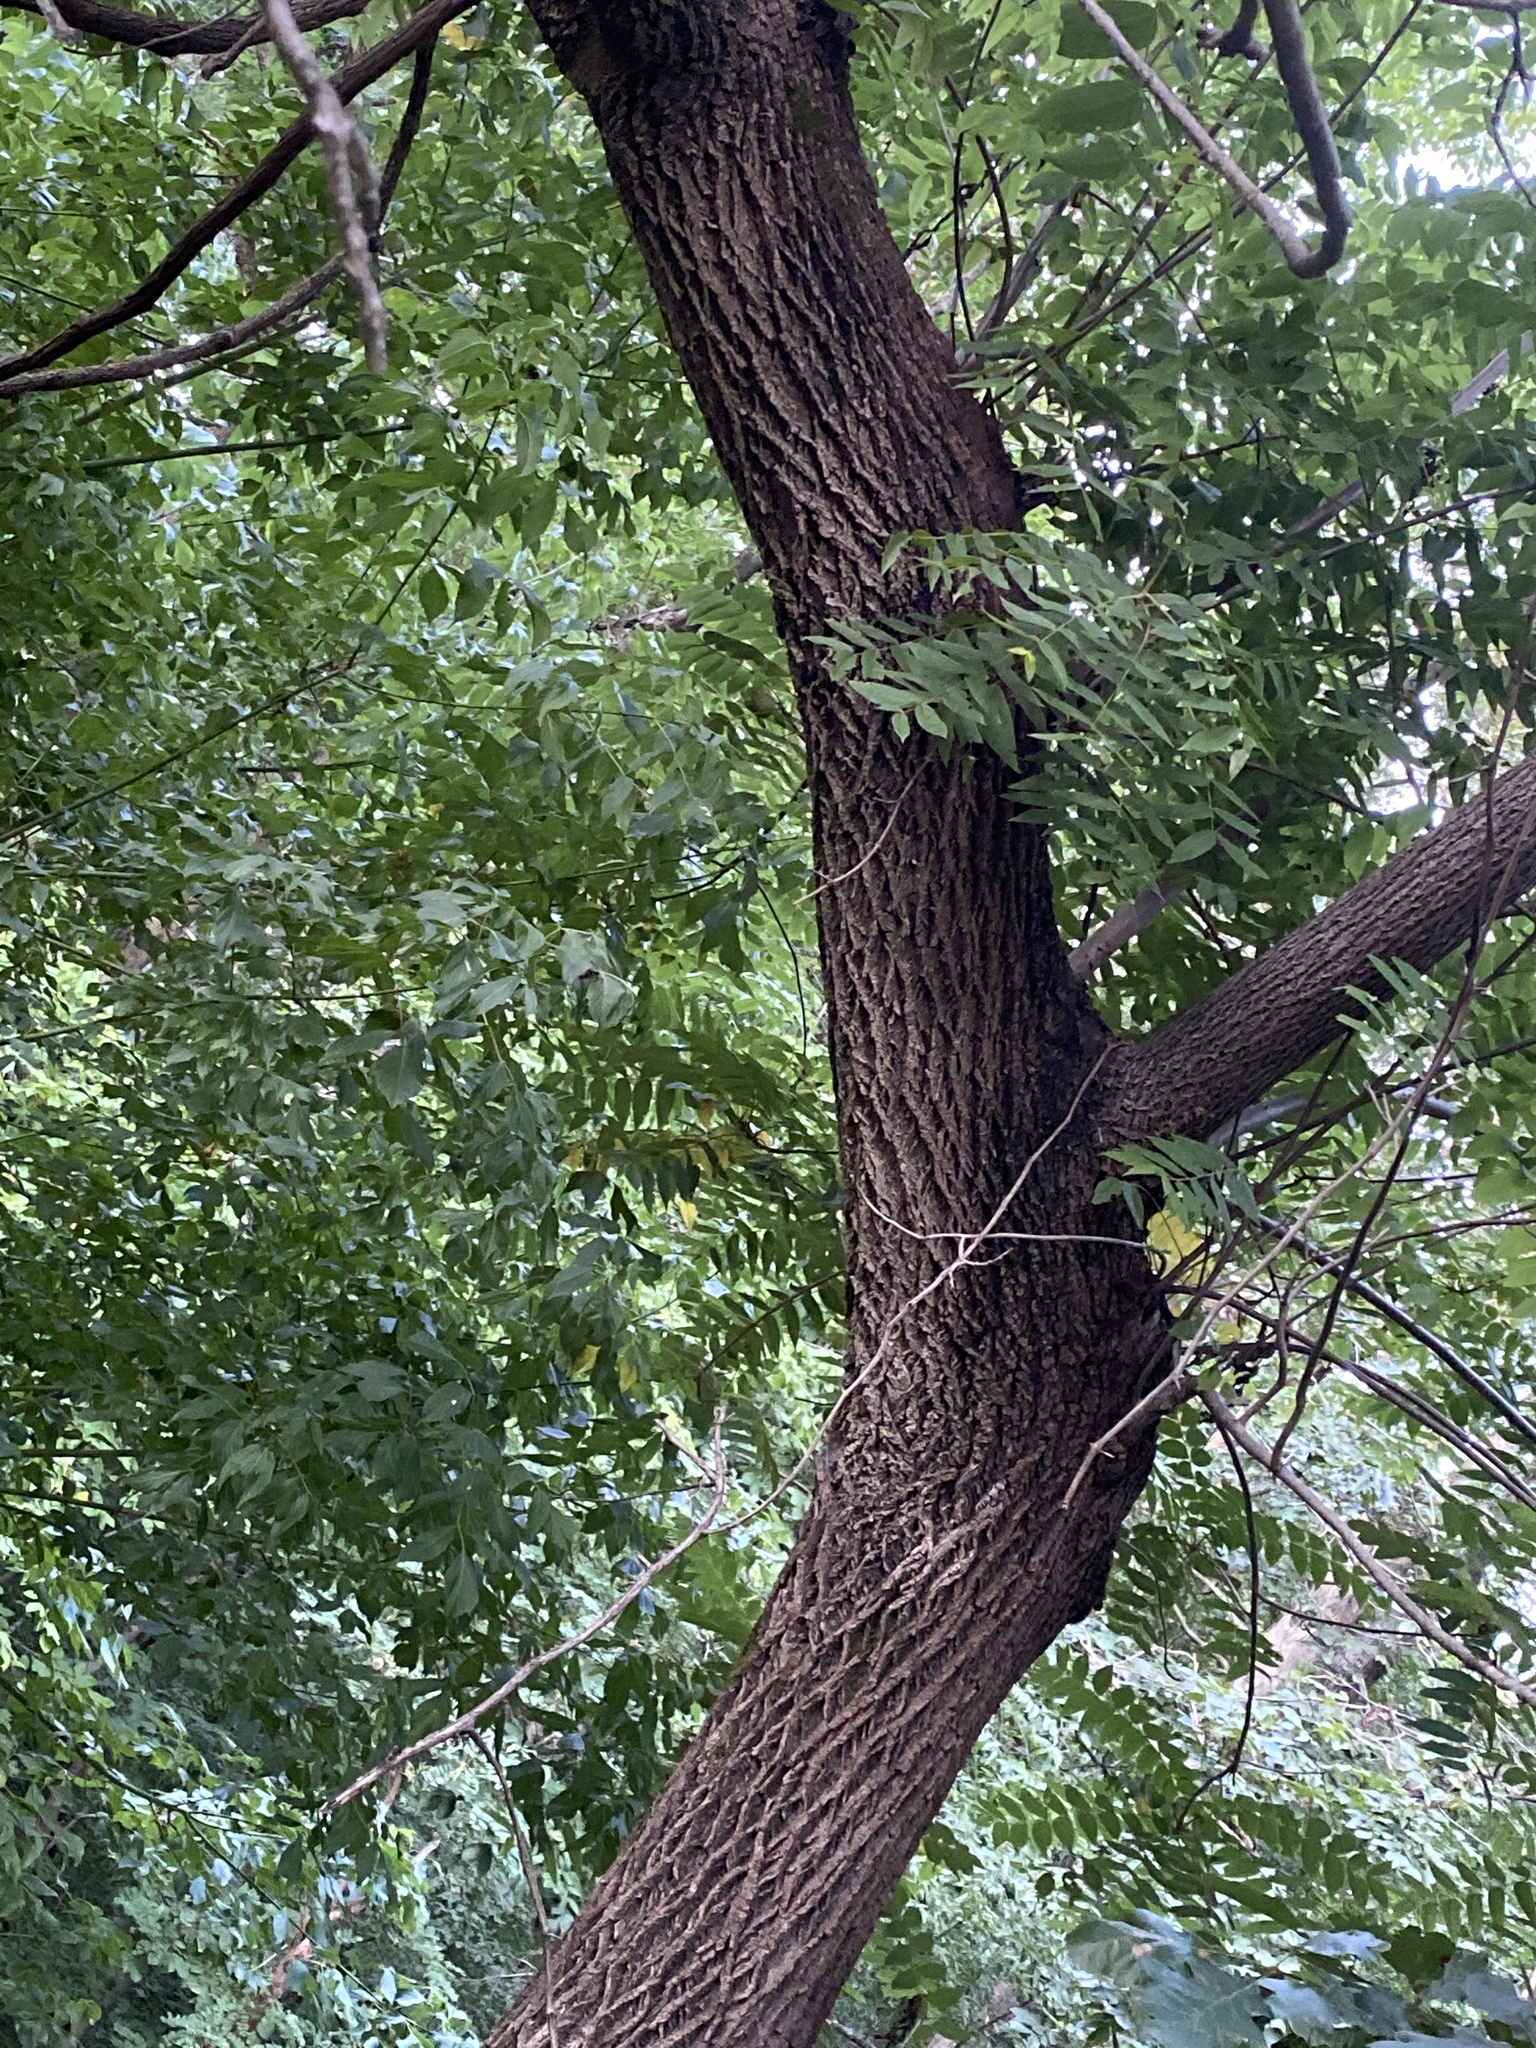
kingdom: Plantae
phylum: Tracheophyta
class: Magnoliopsida
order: Fagales
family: Juglandaceae
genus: Juglans
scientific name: Juglans nigra
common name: Black walnut
